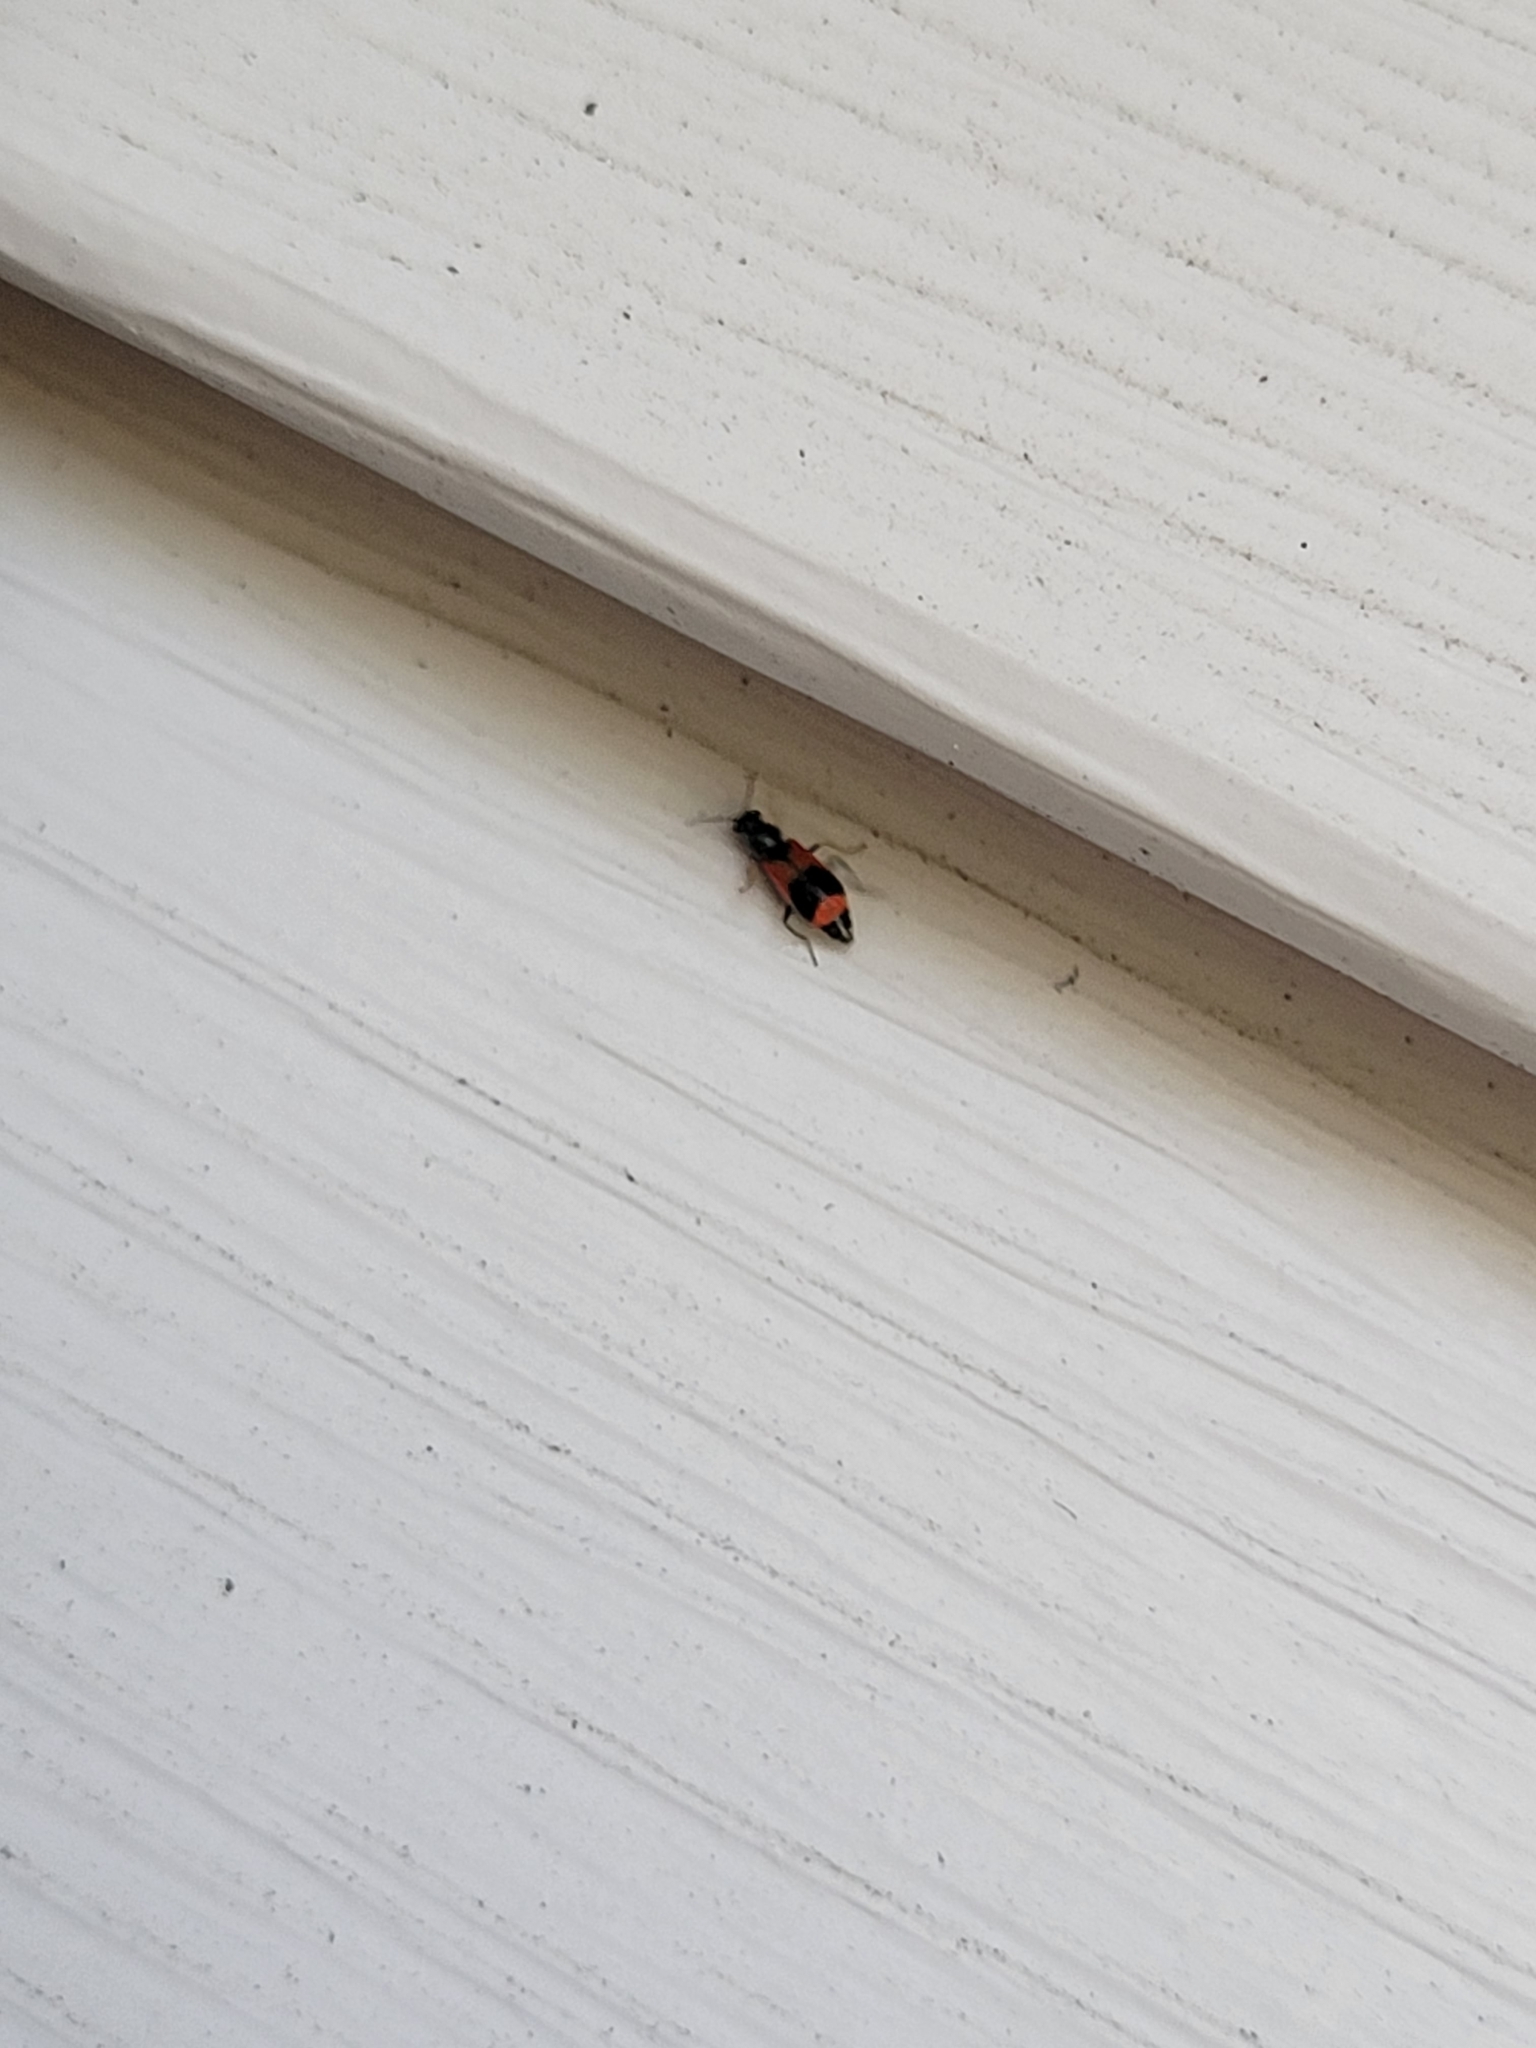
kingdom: Animalia
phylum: Arthropoda
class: Insecta
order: Coleoptera
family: Melyridae
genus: Anthocomus
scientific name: Anthocomus equestris
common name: Black-banded soft-winged flower beetle
